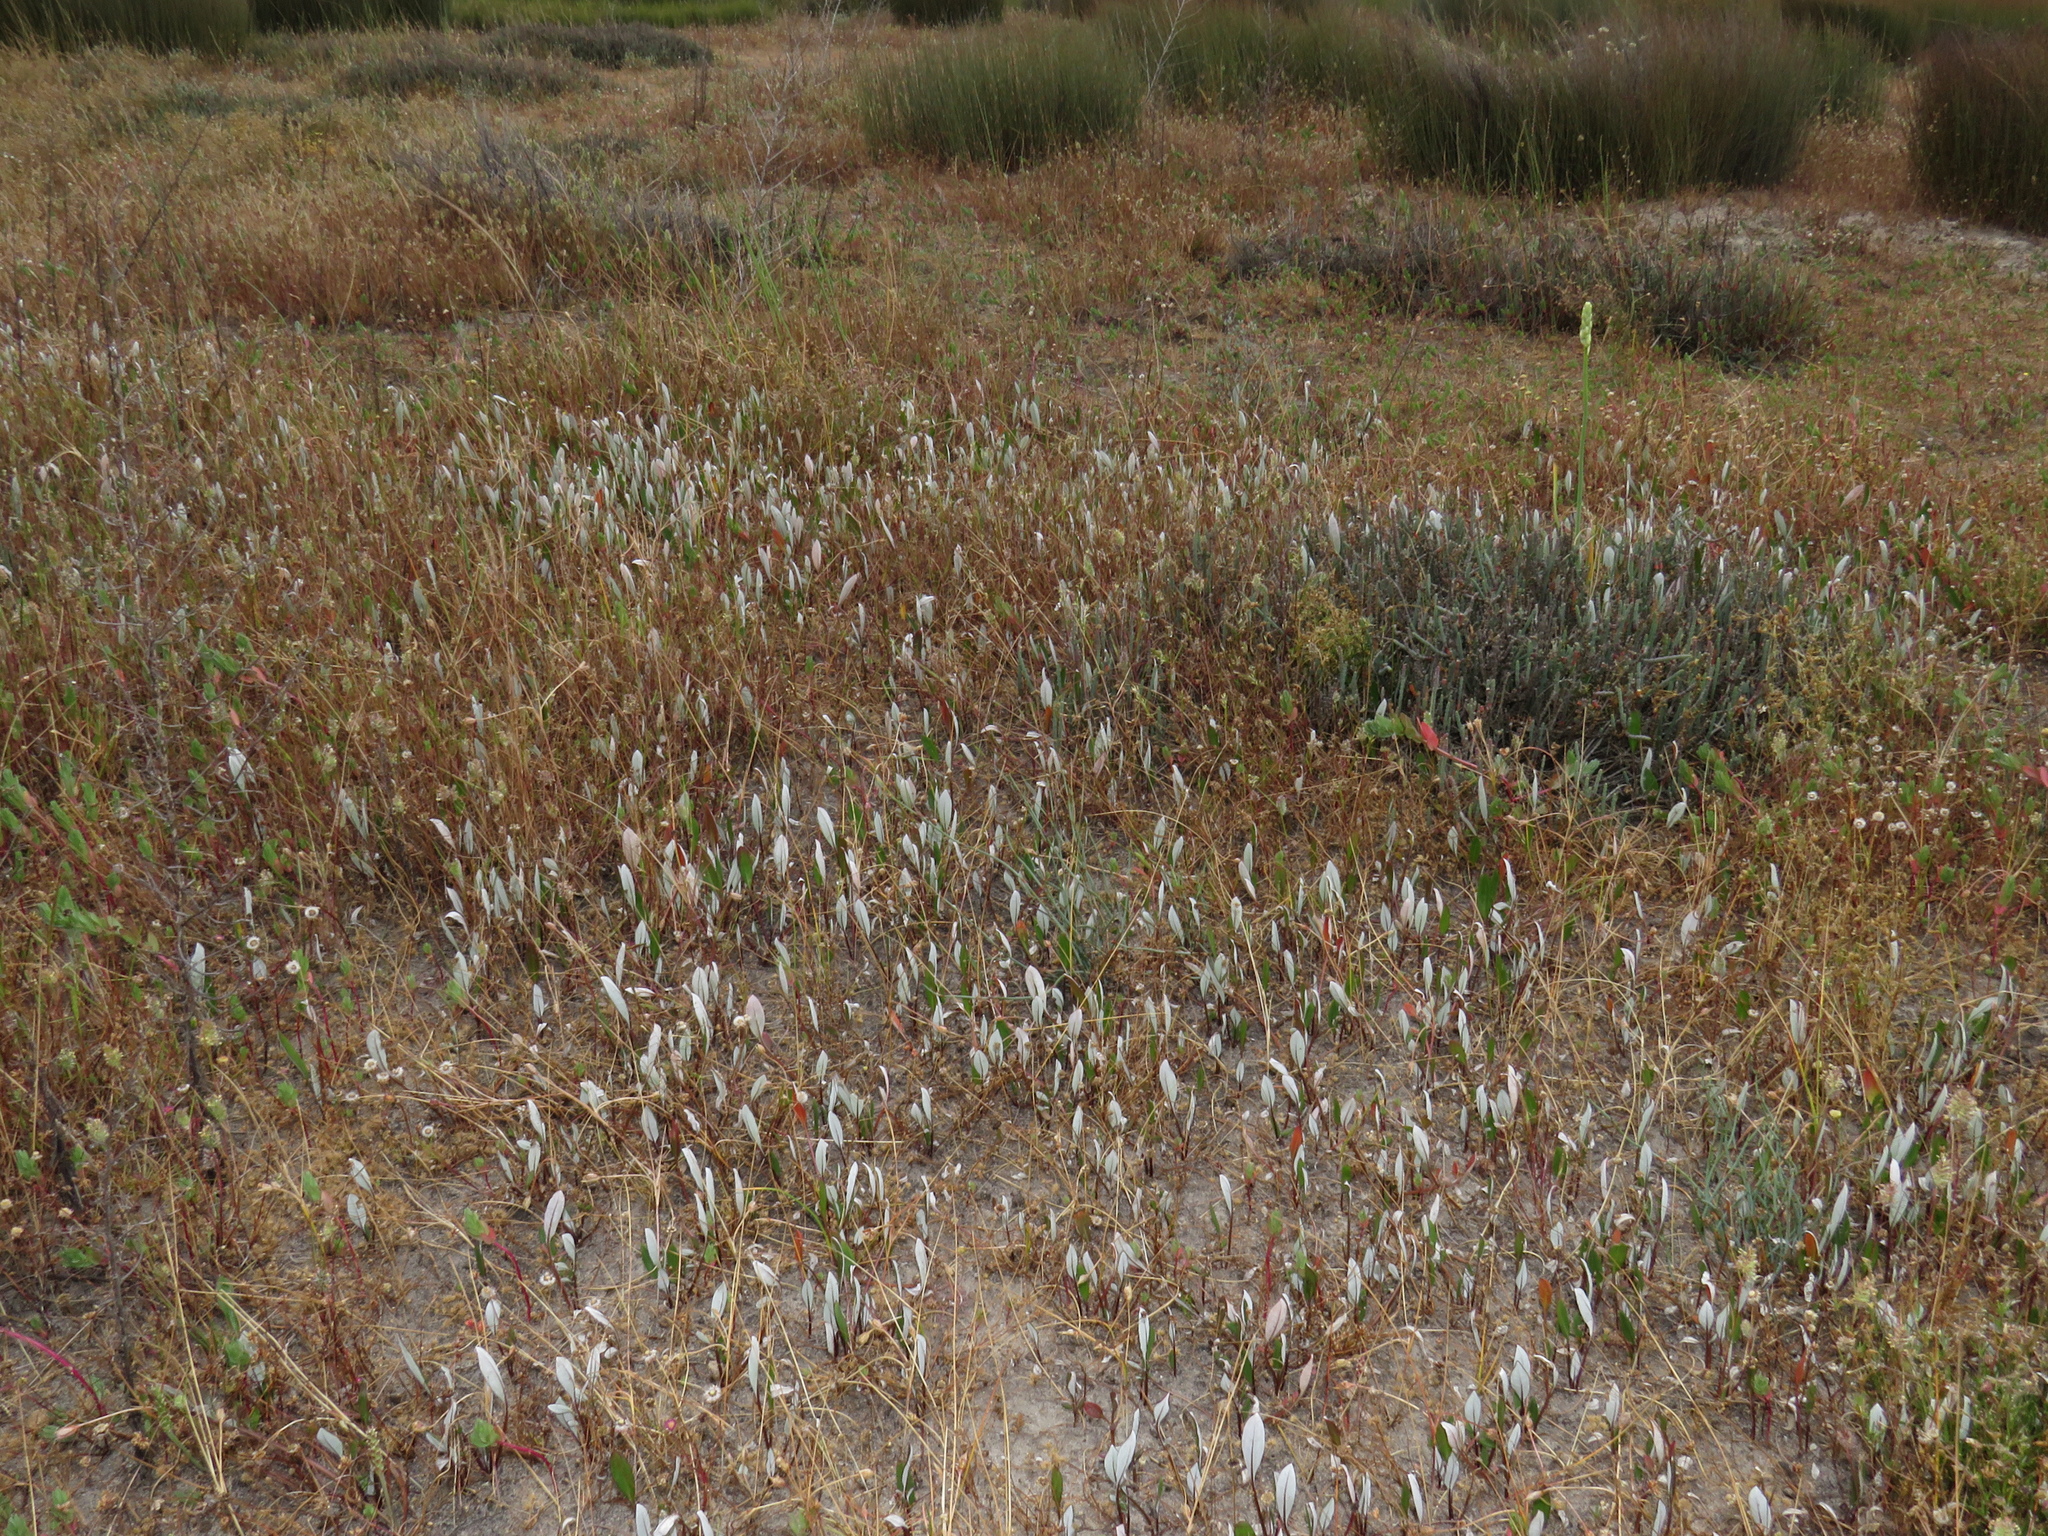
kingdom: Plantae
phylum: Tracheophyta
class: Magnoliopsida
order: Asterales
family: Asteraceae
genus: Arctotheca
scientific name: Arctotheca forbesiana
